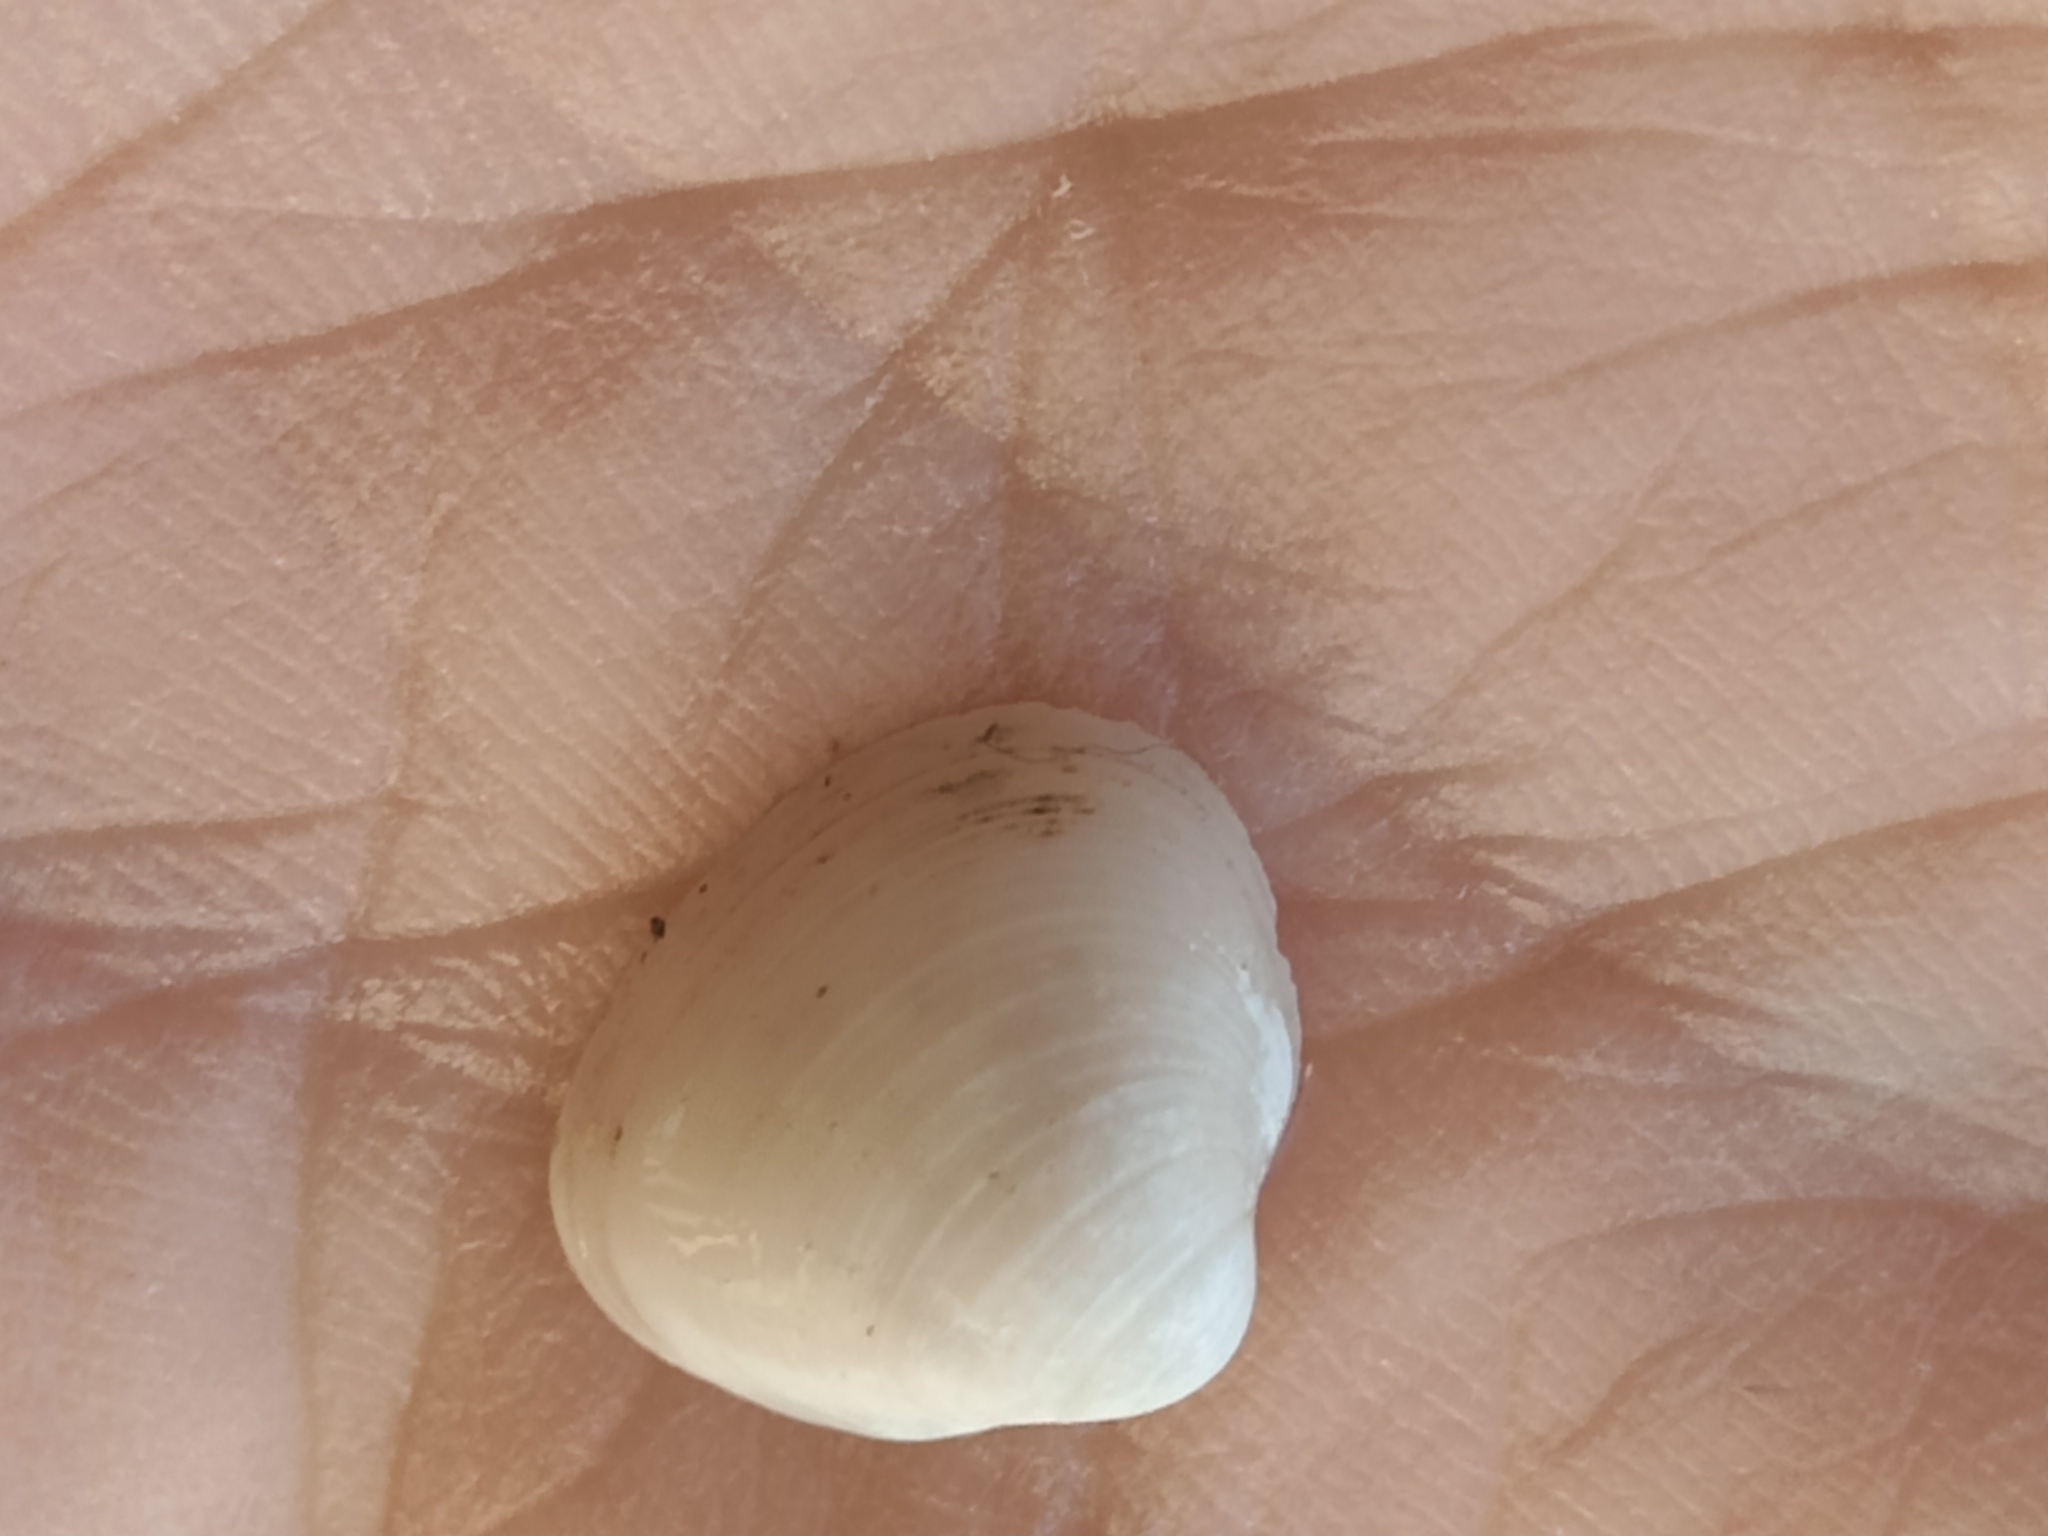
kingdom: Animalia
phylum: Mollusca
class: Bivalvia
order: Sphaeriida
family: Sphaeriidae
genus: Sphaerium
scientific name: Sphaerium striatinum
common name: Striated fingernailclam
